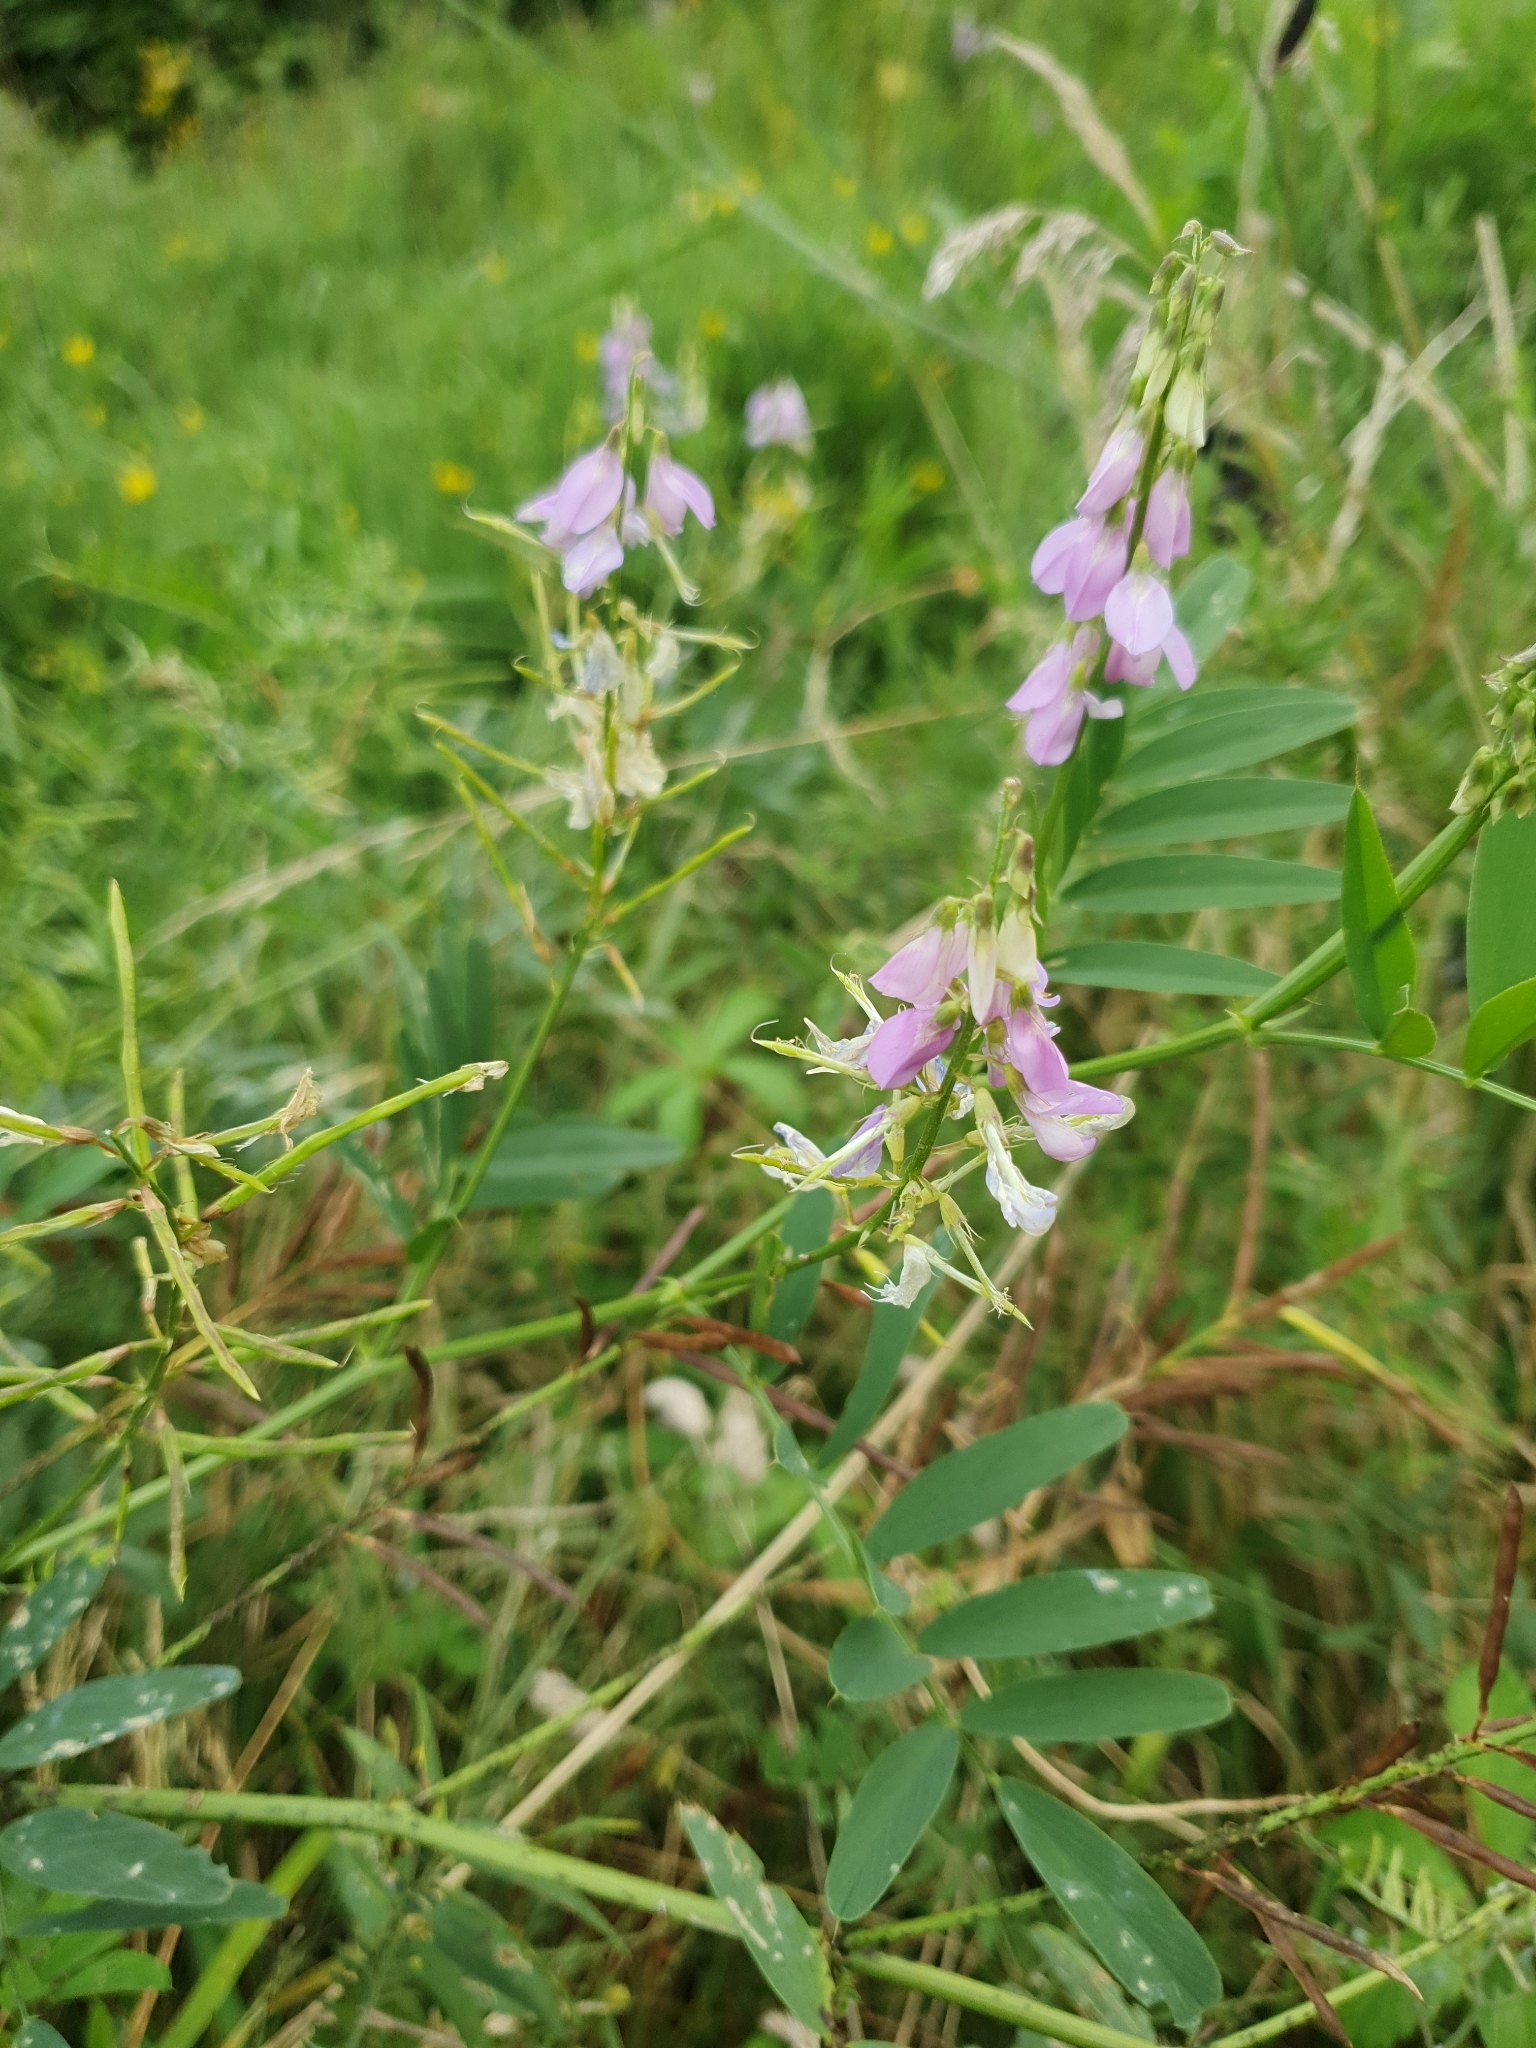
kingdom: Plantae
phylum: Tracheophyta
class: Magnoliopsida
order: Fabales
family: Fabaceae
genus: Galega
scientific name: Galega officinalis
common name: Goat's-rue
